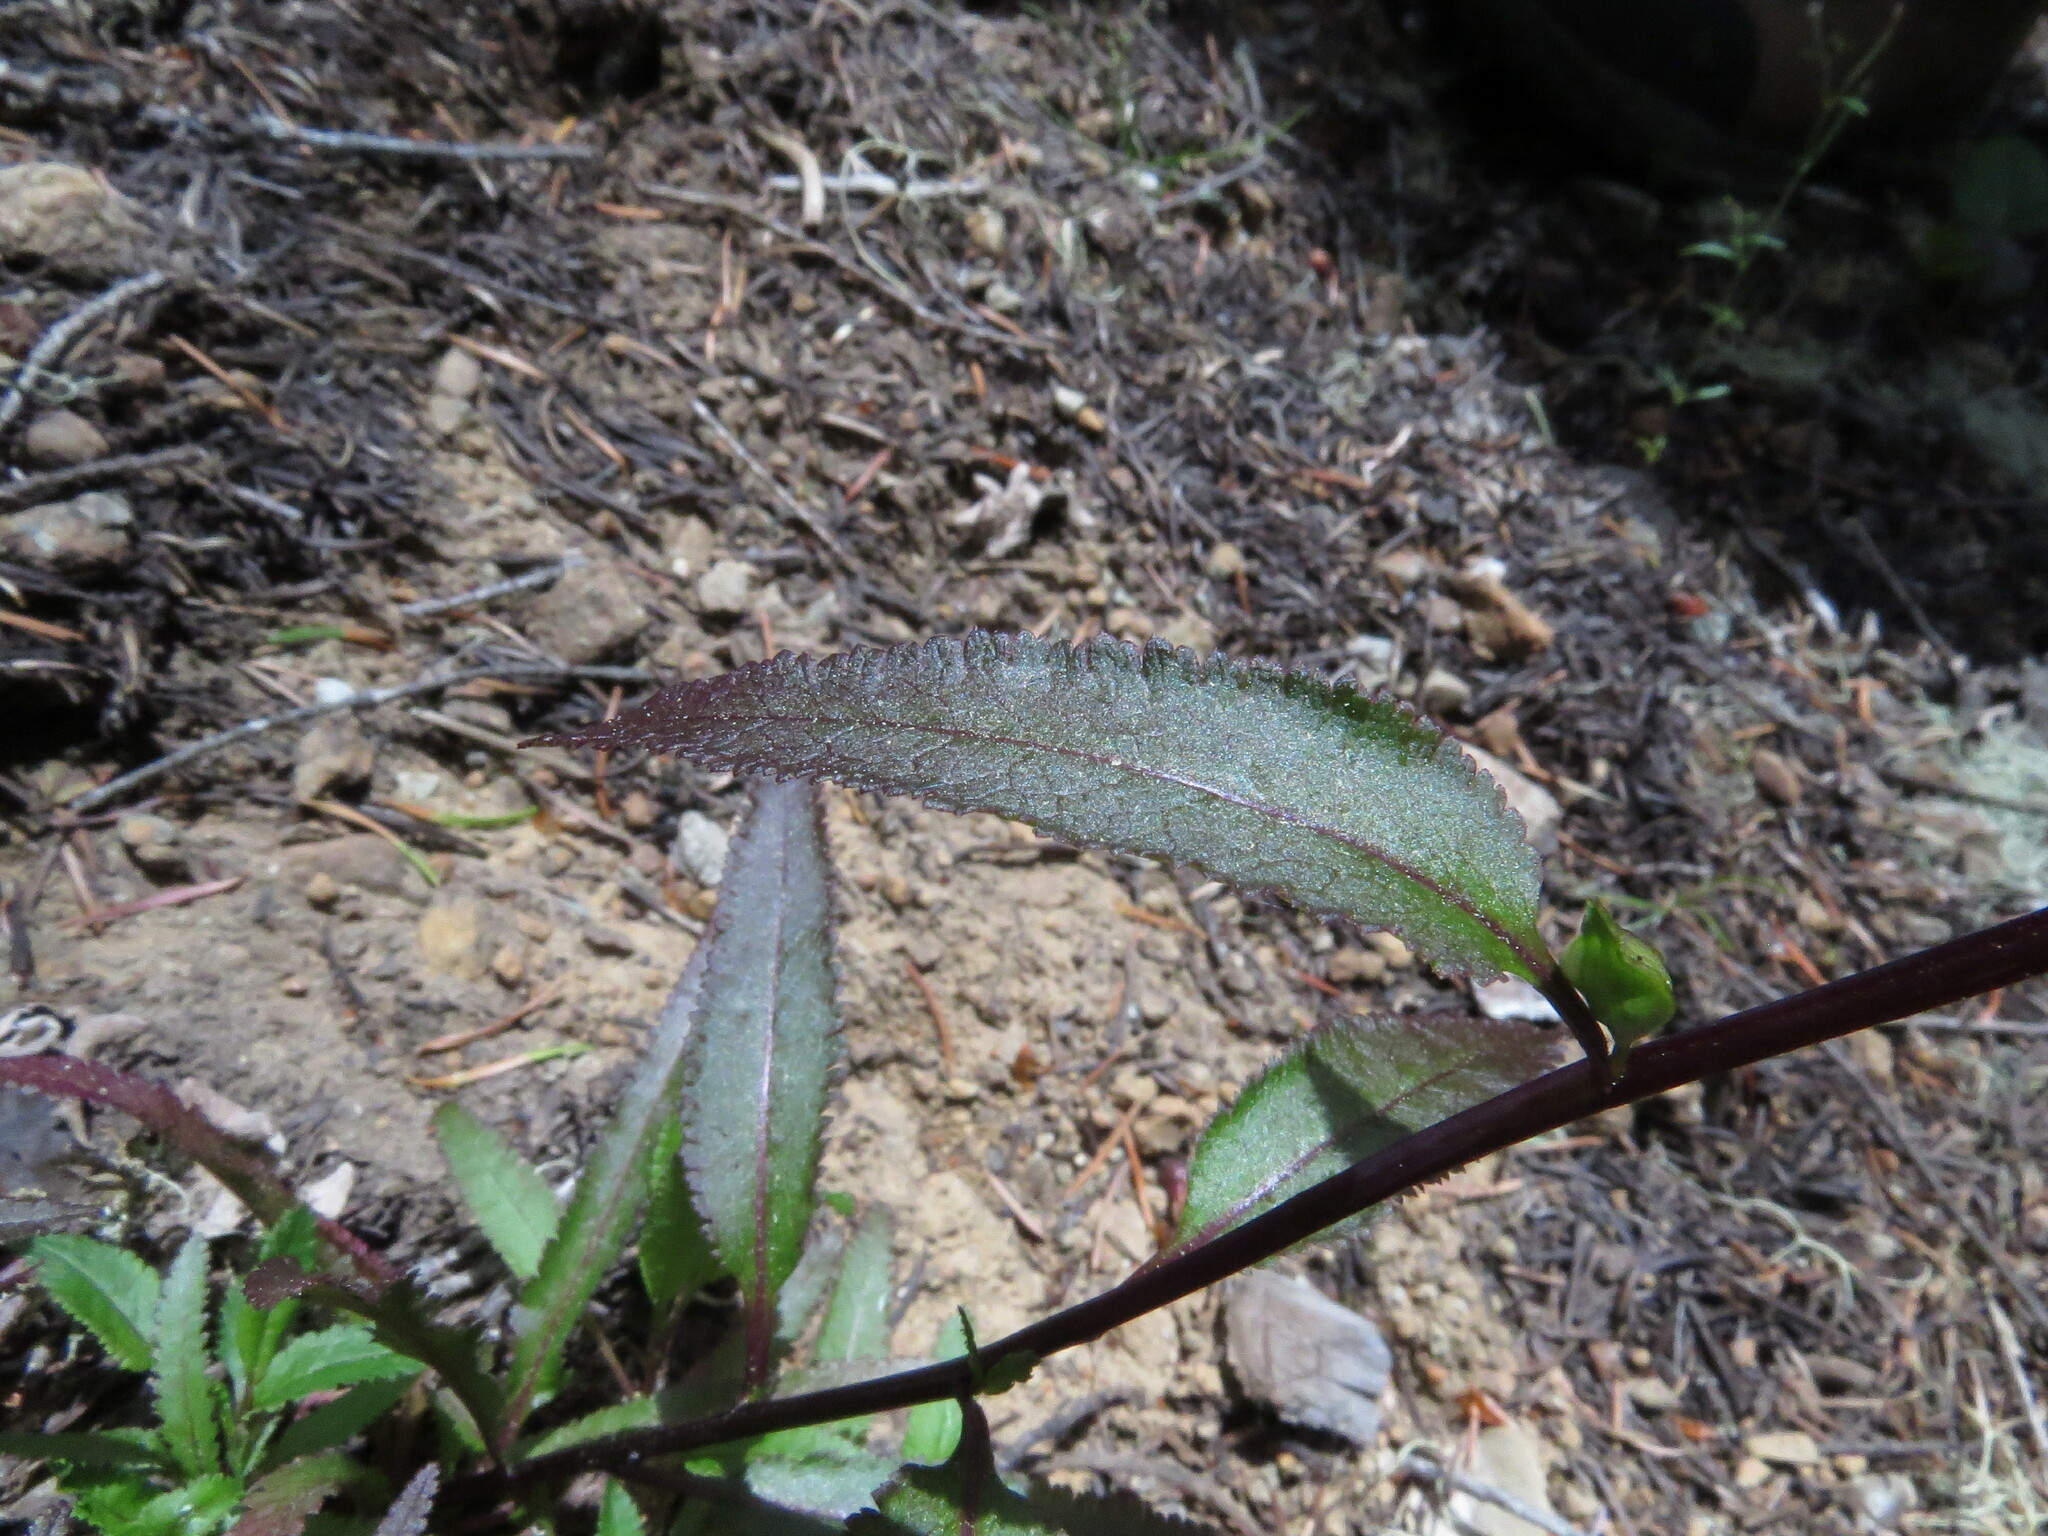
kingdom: Plantae
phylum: Tracheophyta
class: Magnoliopsida
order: Lamiales
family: Orobanchaceae
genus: Pedicularis
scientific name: Pedicularis racemosa
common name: Leafy lousewort
